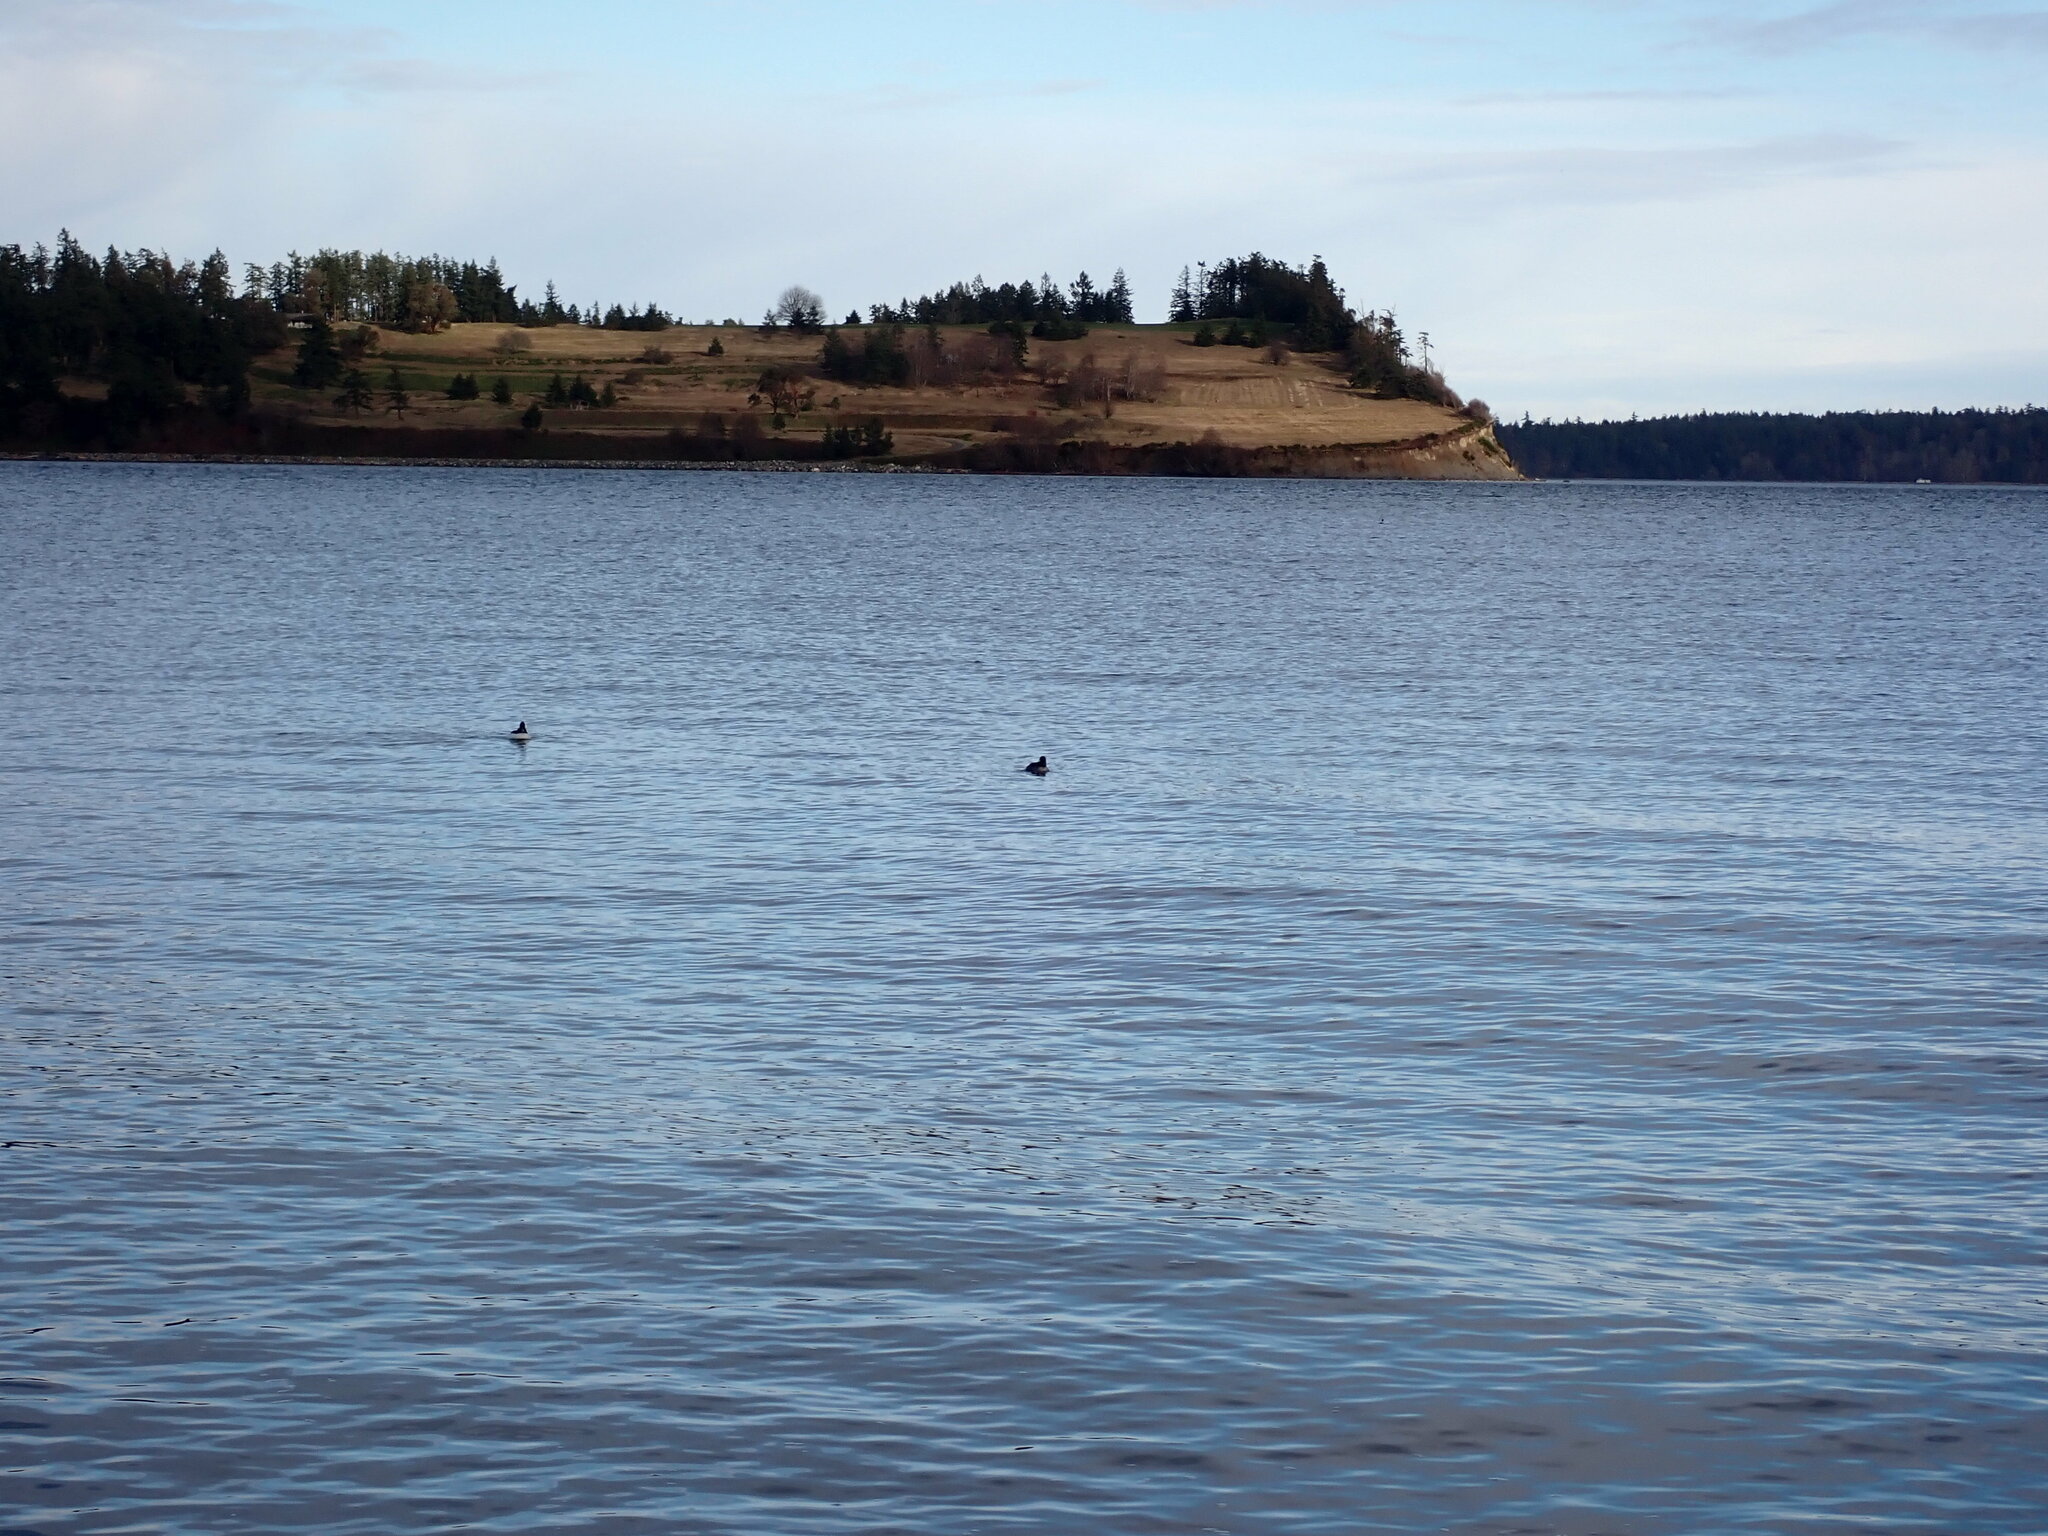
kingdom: Animalia
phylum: Chordata
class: Aves
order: Anseriformes
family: Anatidae
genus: Bucephala
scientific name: Bucephala albeola
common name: Bufflehead
